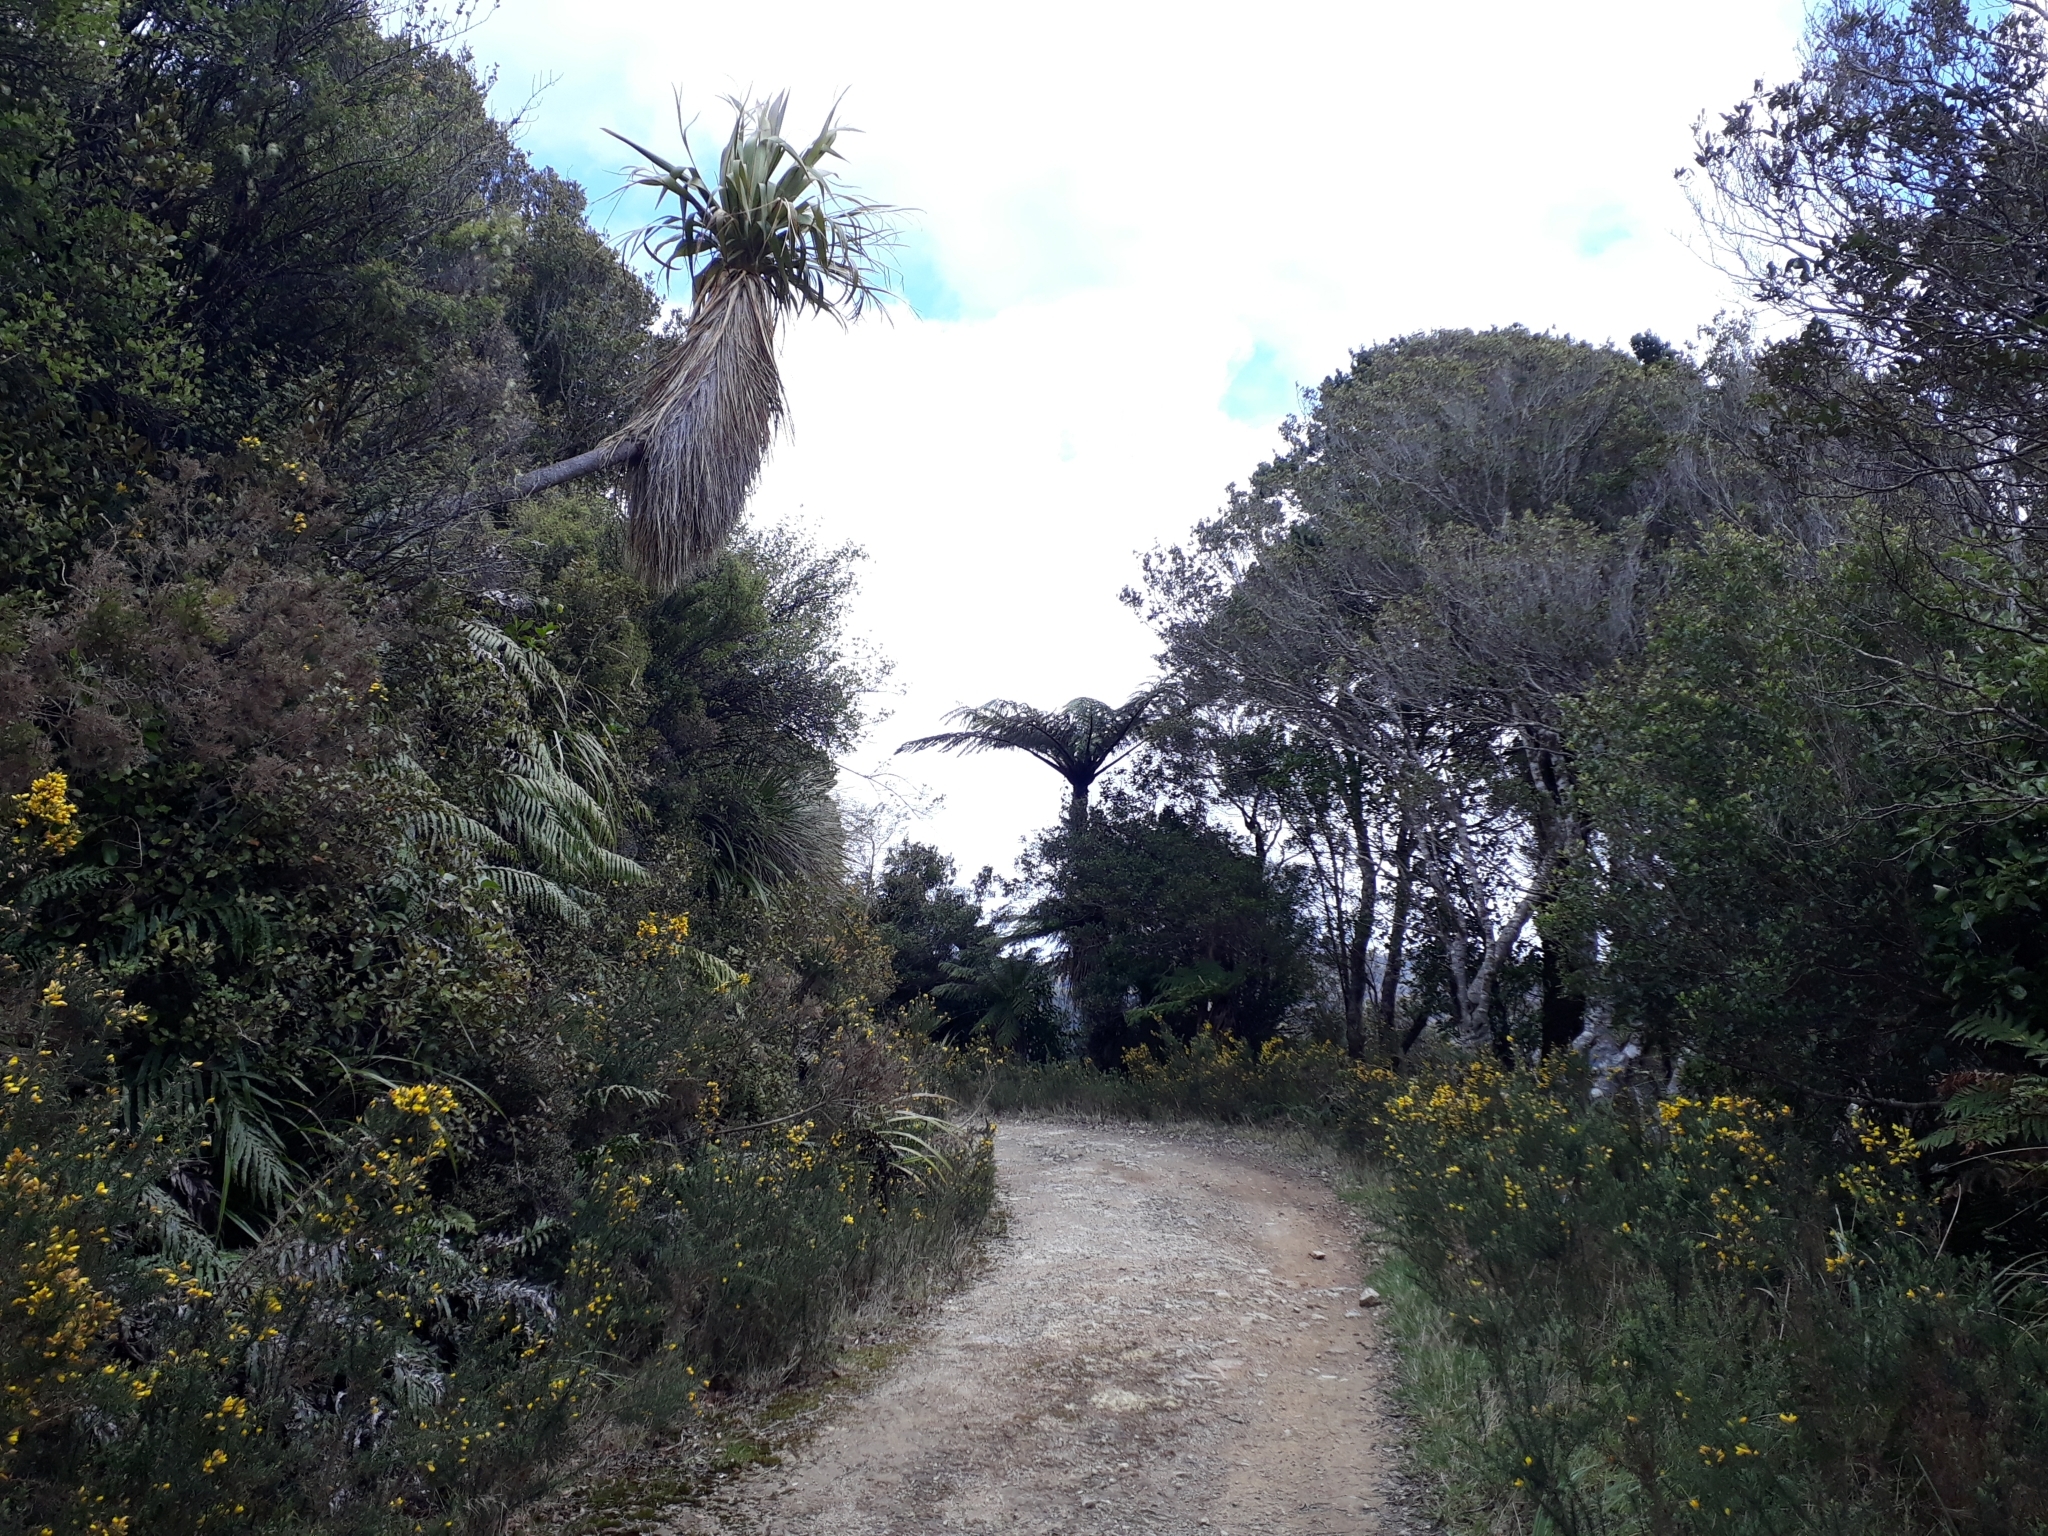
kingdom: Plantae
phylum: Tracheophyta
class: Polypodiopsida
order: Cyatheales
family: Cyatheaceae
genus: Sphaeropteris
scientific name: Sphaeropteris medullaris
